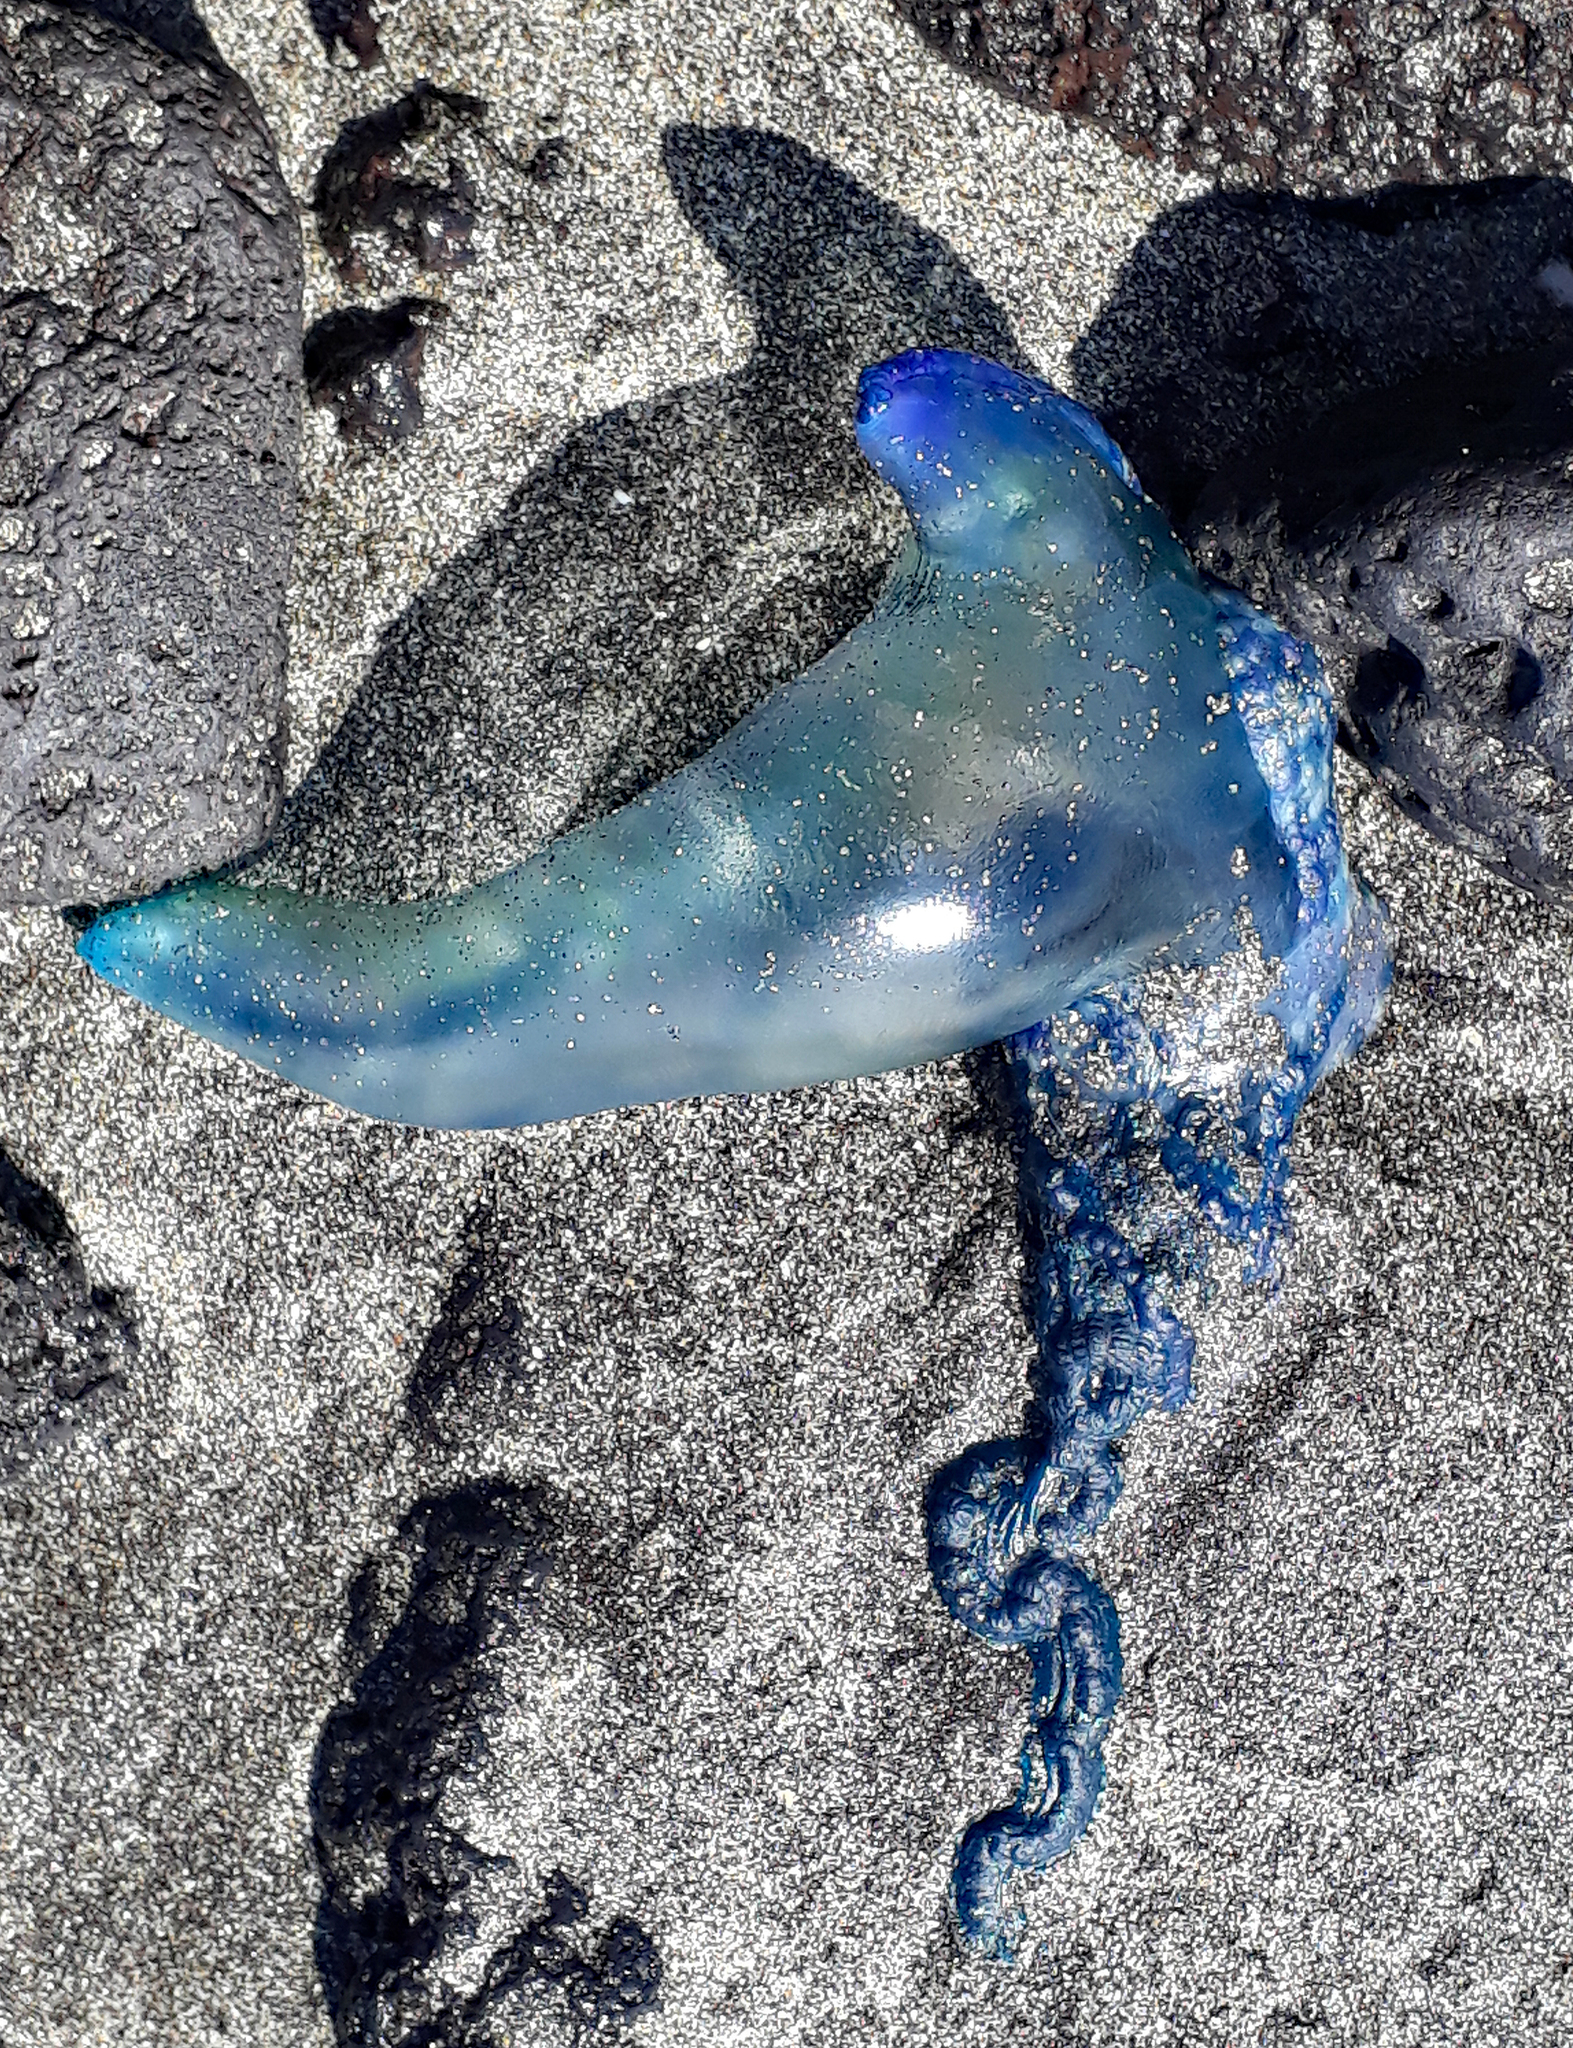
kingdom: Animalia
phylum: Cnidaria
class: Hydrozoa
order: Siphonophorae
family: Physaliidae
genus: Physalia
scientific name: Physalia physalis
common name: Portuguese man-of-war
